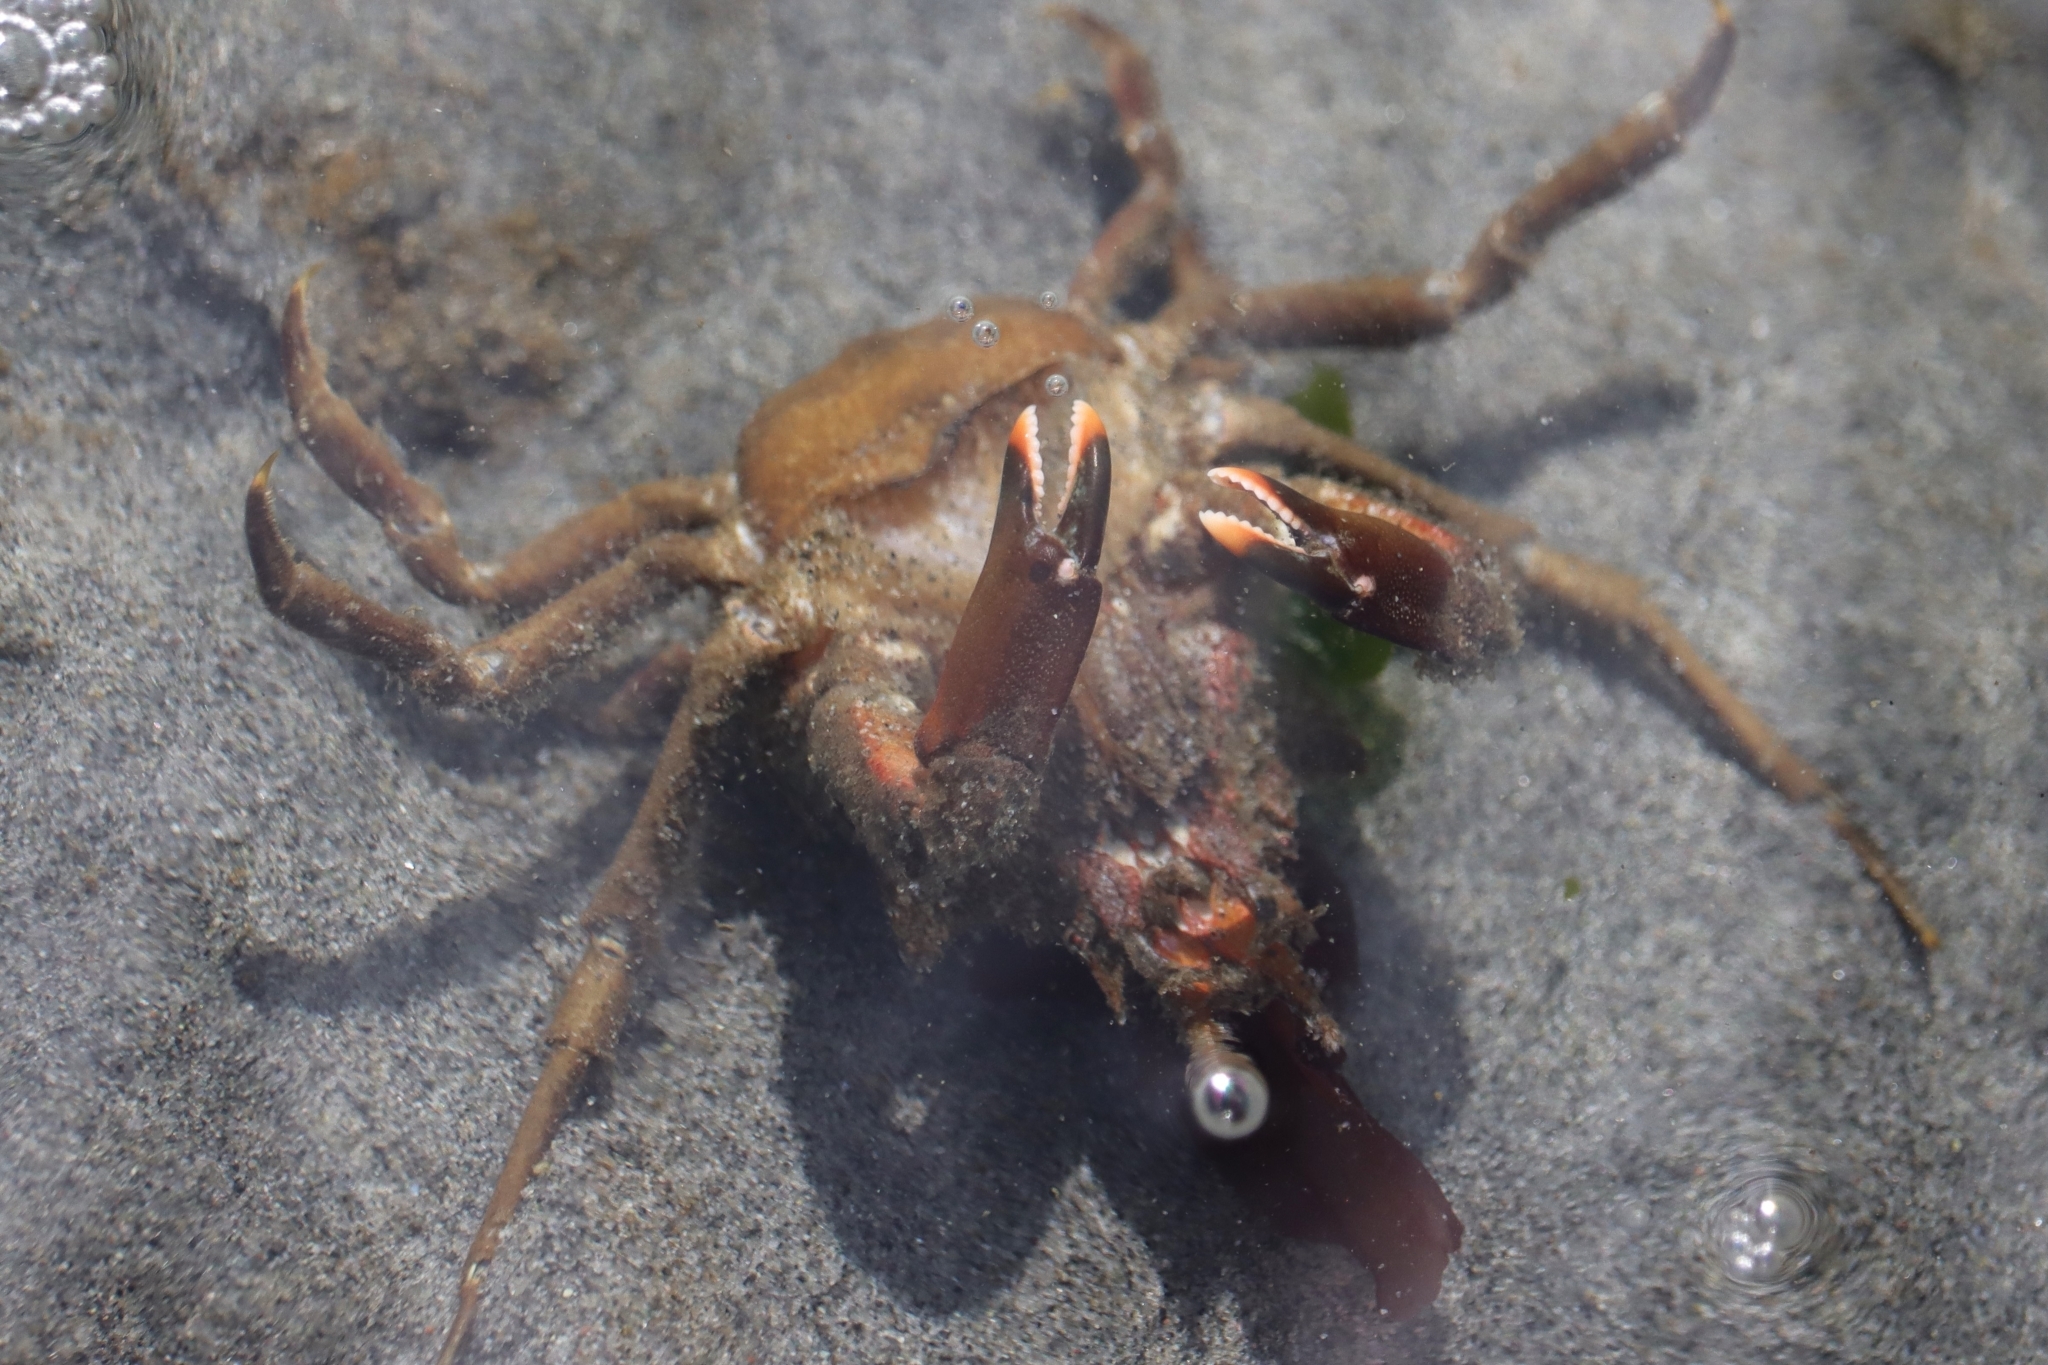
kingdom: Animalia
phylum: Arthropoda
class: Malacostraca
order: Decapoda
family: Epialtidae
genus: Pugettia
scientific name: Pugettia gracilis
